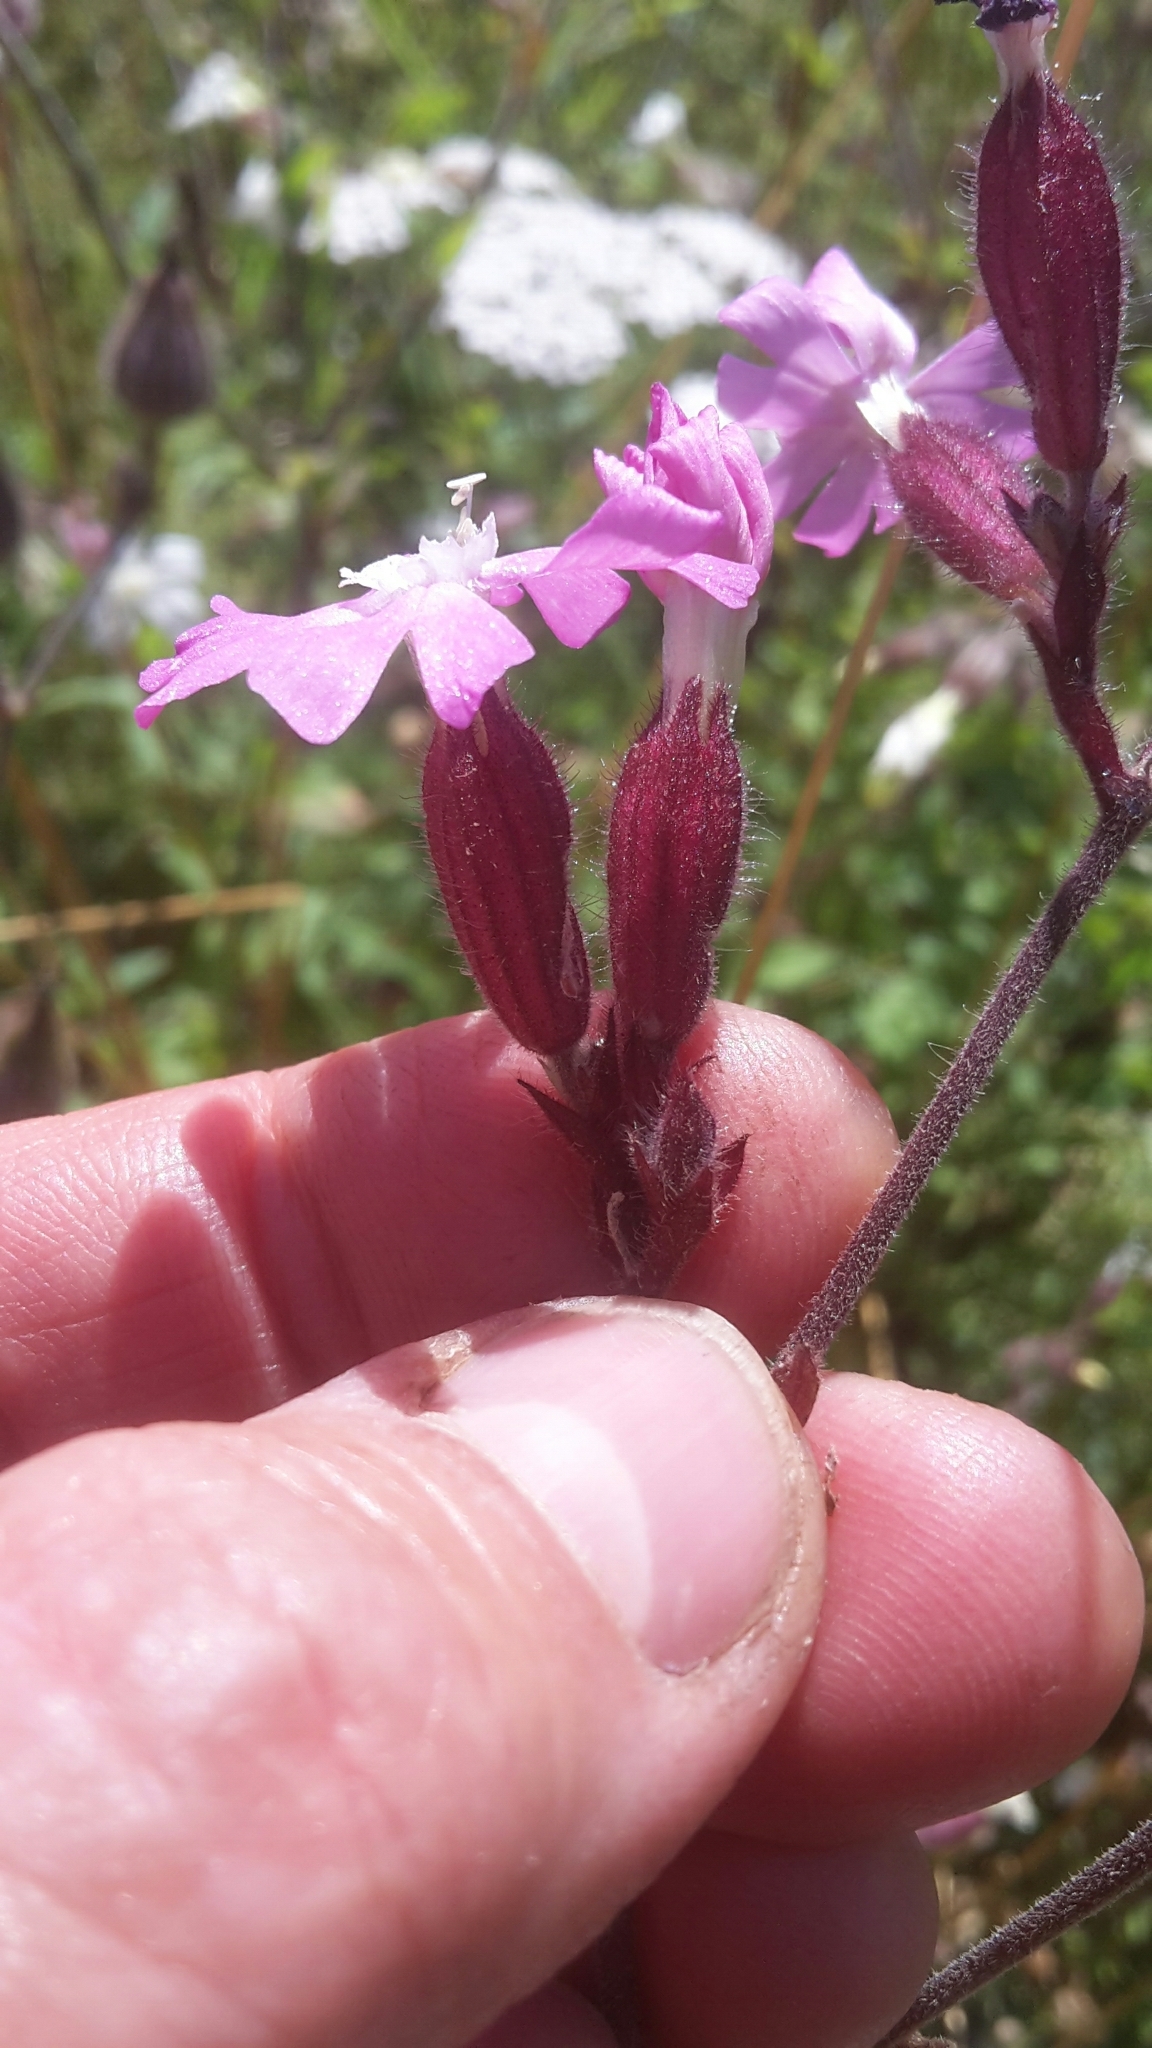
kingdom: Plantae
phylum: Tracheophyta
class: Magnoliopsida
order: Caryophyllales
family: Caryophyllaceae
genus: Silene
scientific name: Silene dioica
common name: Red campion
